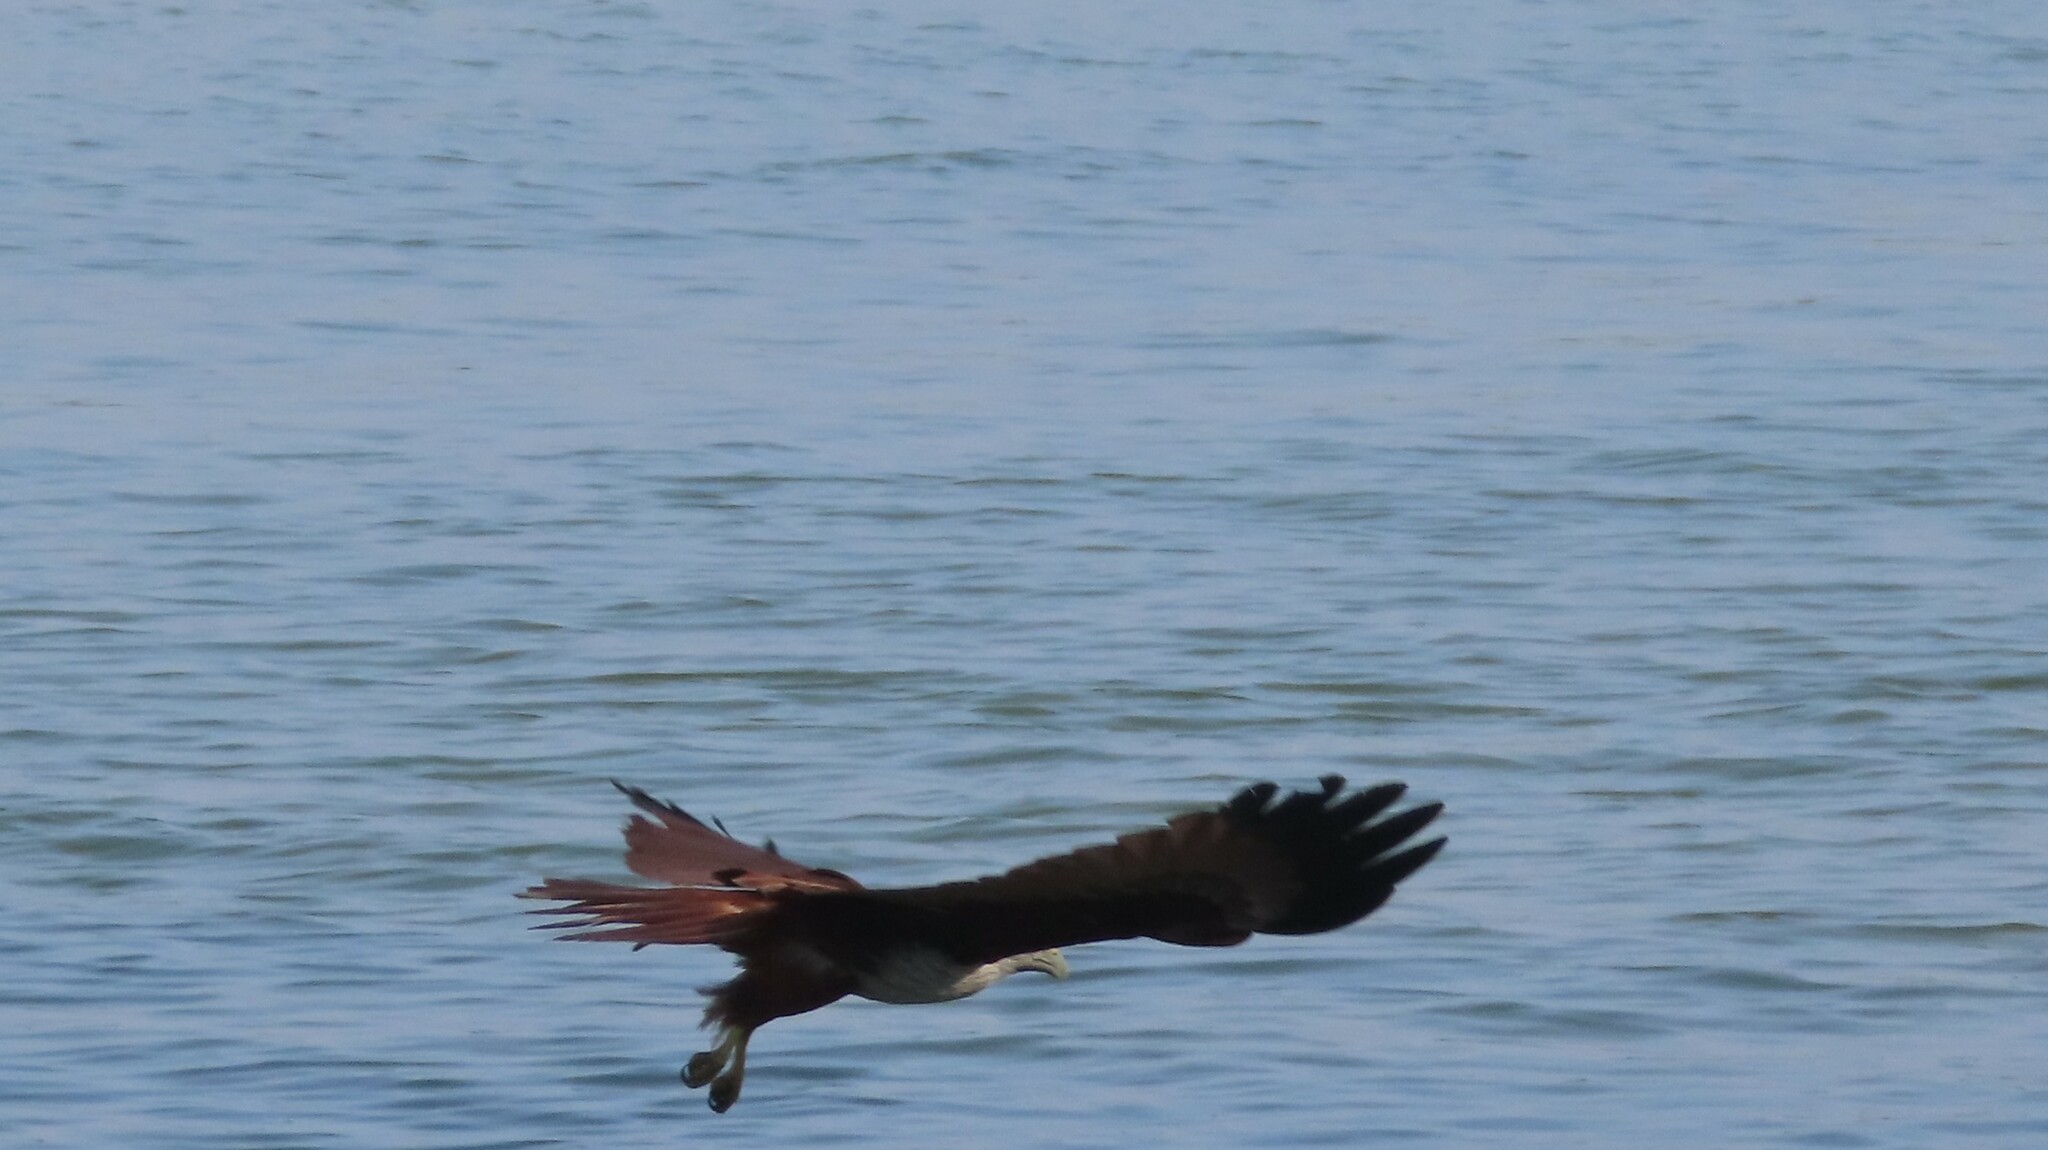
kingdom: Animalia
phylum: Chordata
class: Aves
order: Accipitriformes
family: Accipitridae
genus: Haliastur
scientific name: Haliastur indus
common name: Brahminy kite
